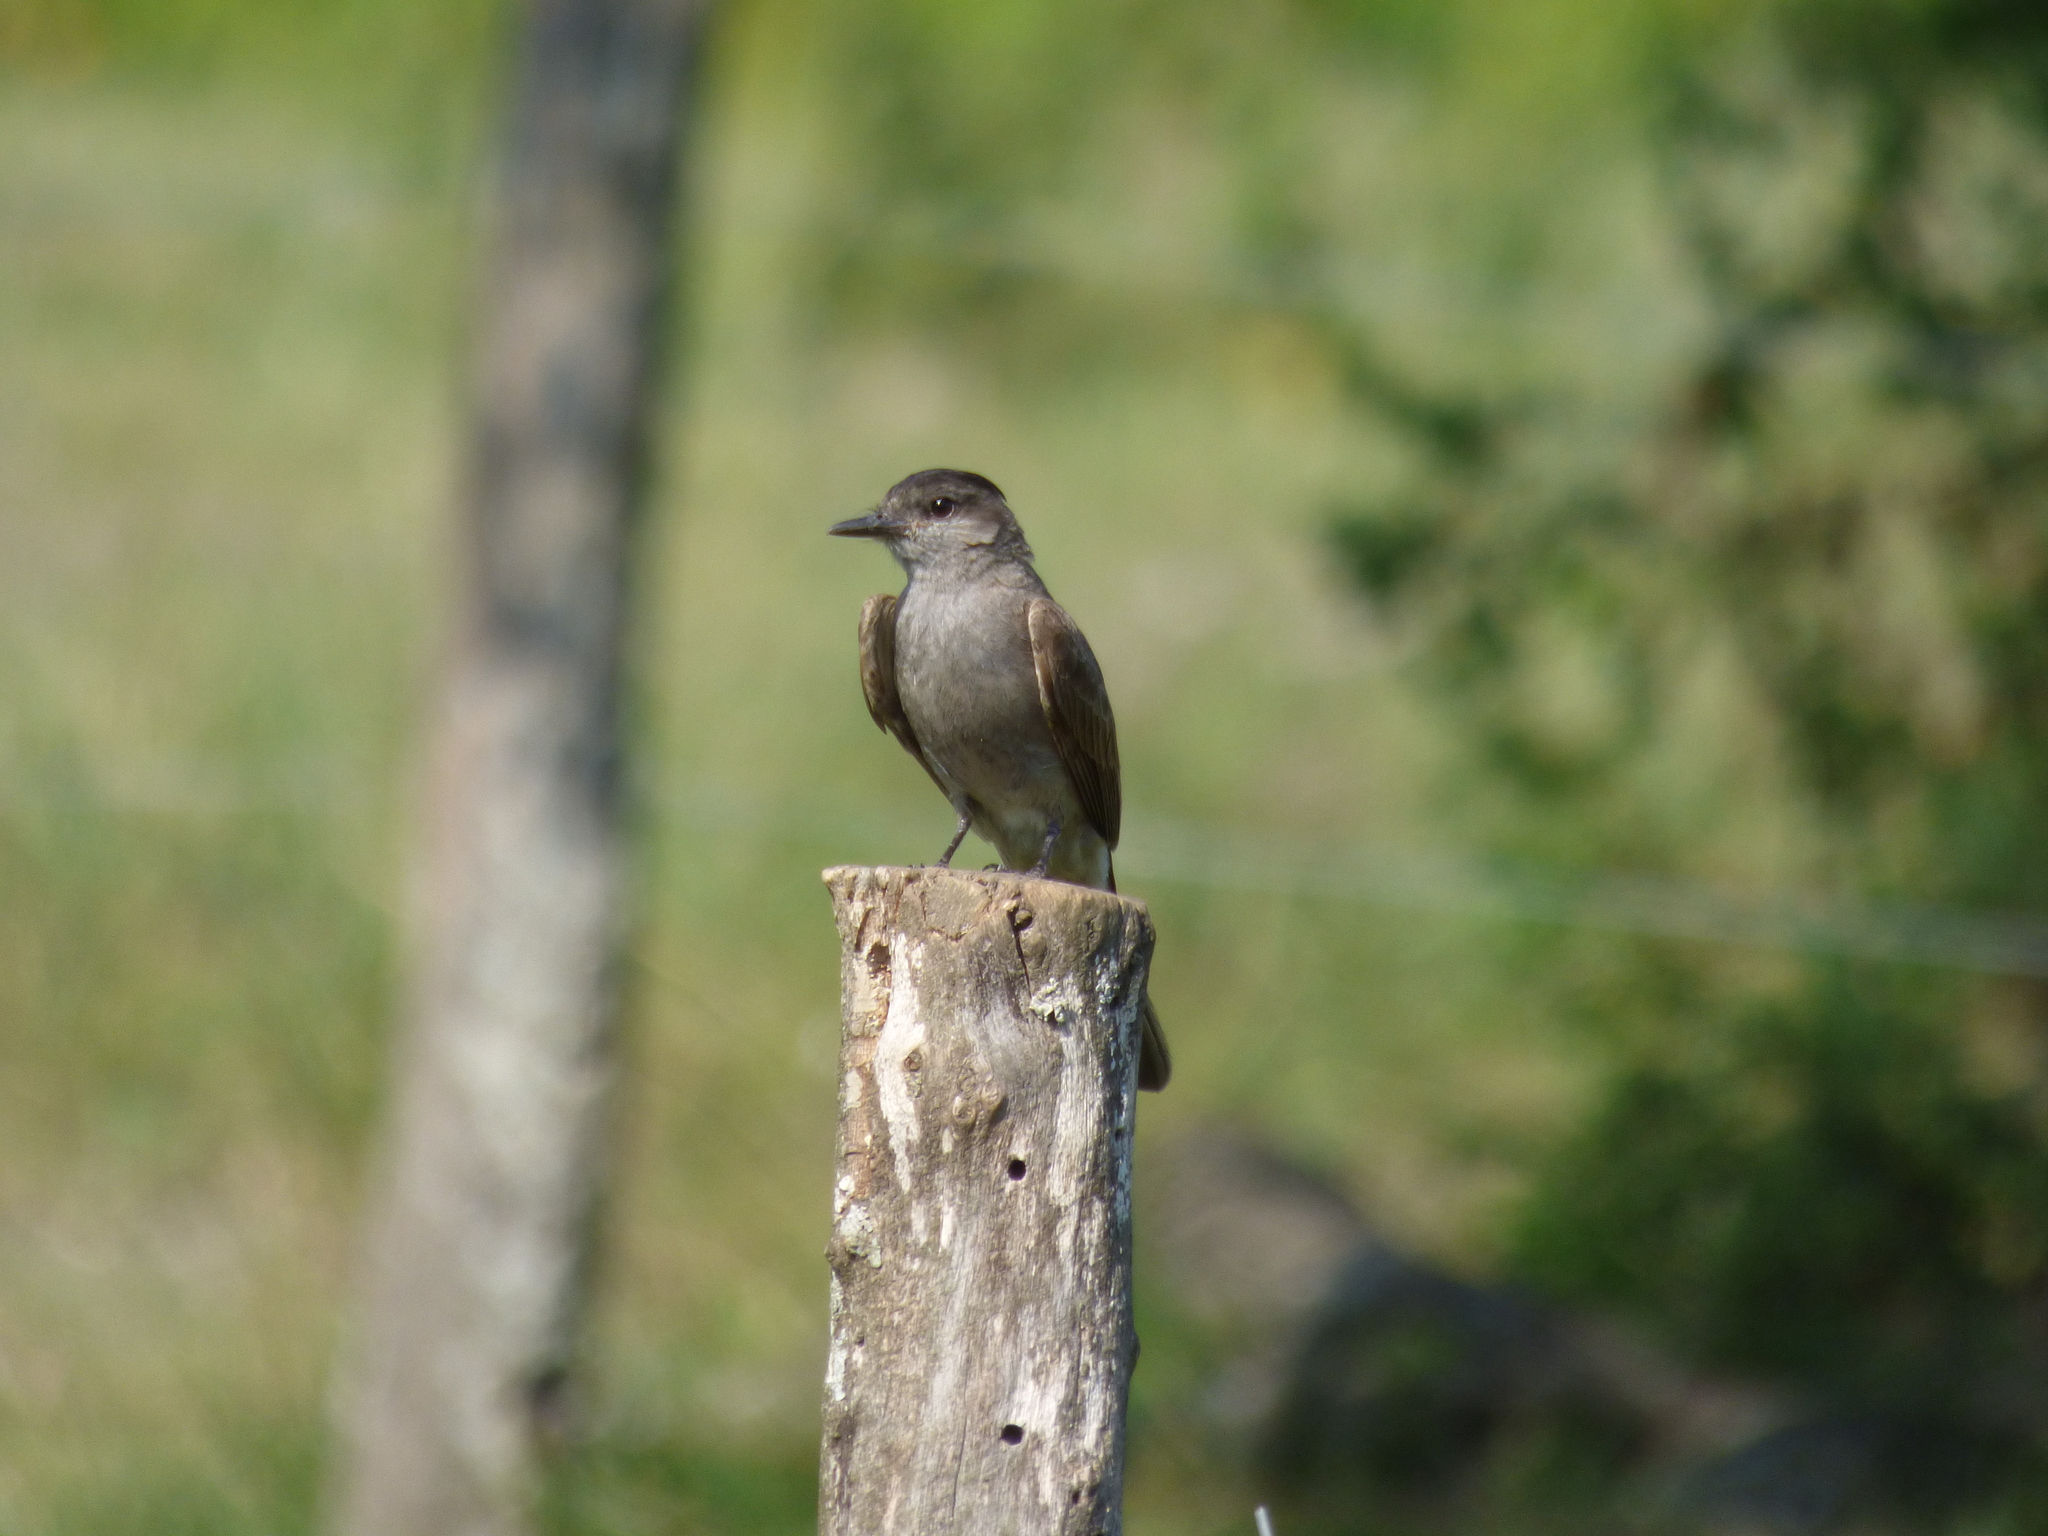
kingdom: Animalia
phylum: Chordata
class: Aves
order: Passeriformes
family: Tyrannidae
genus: Empidonomus
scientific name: Empidonomus aurantioatrocristatus
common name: Crowned slaty flycatcher
